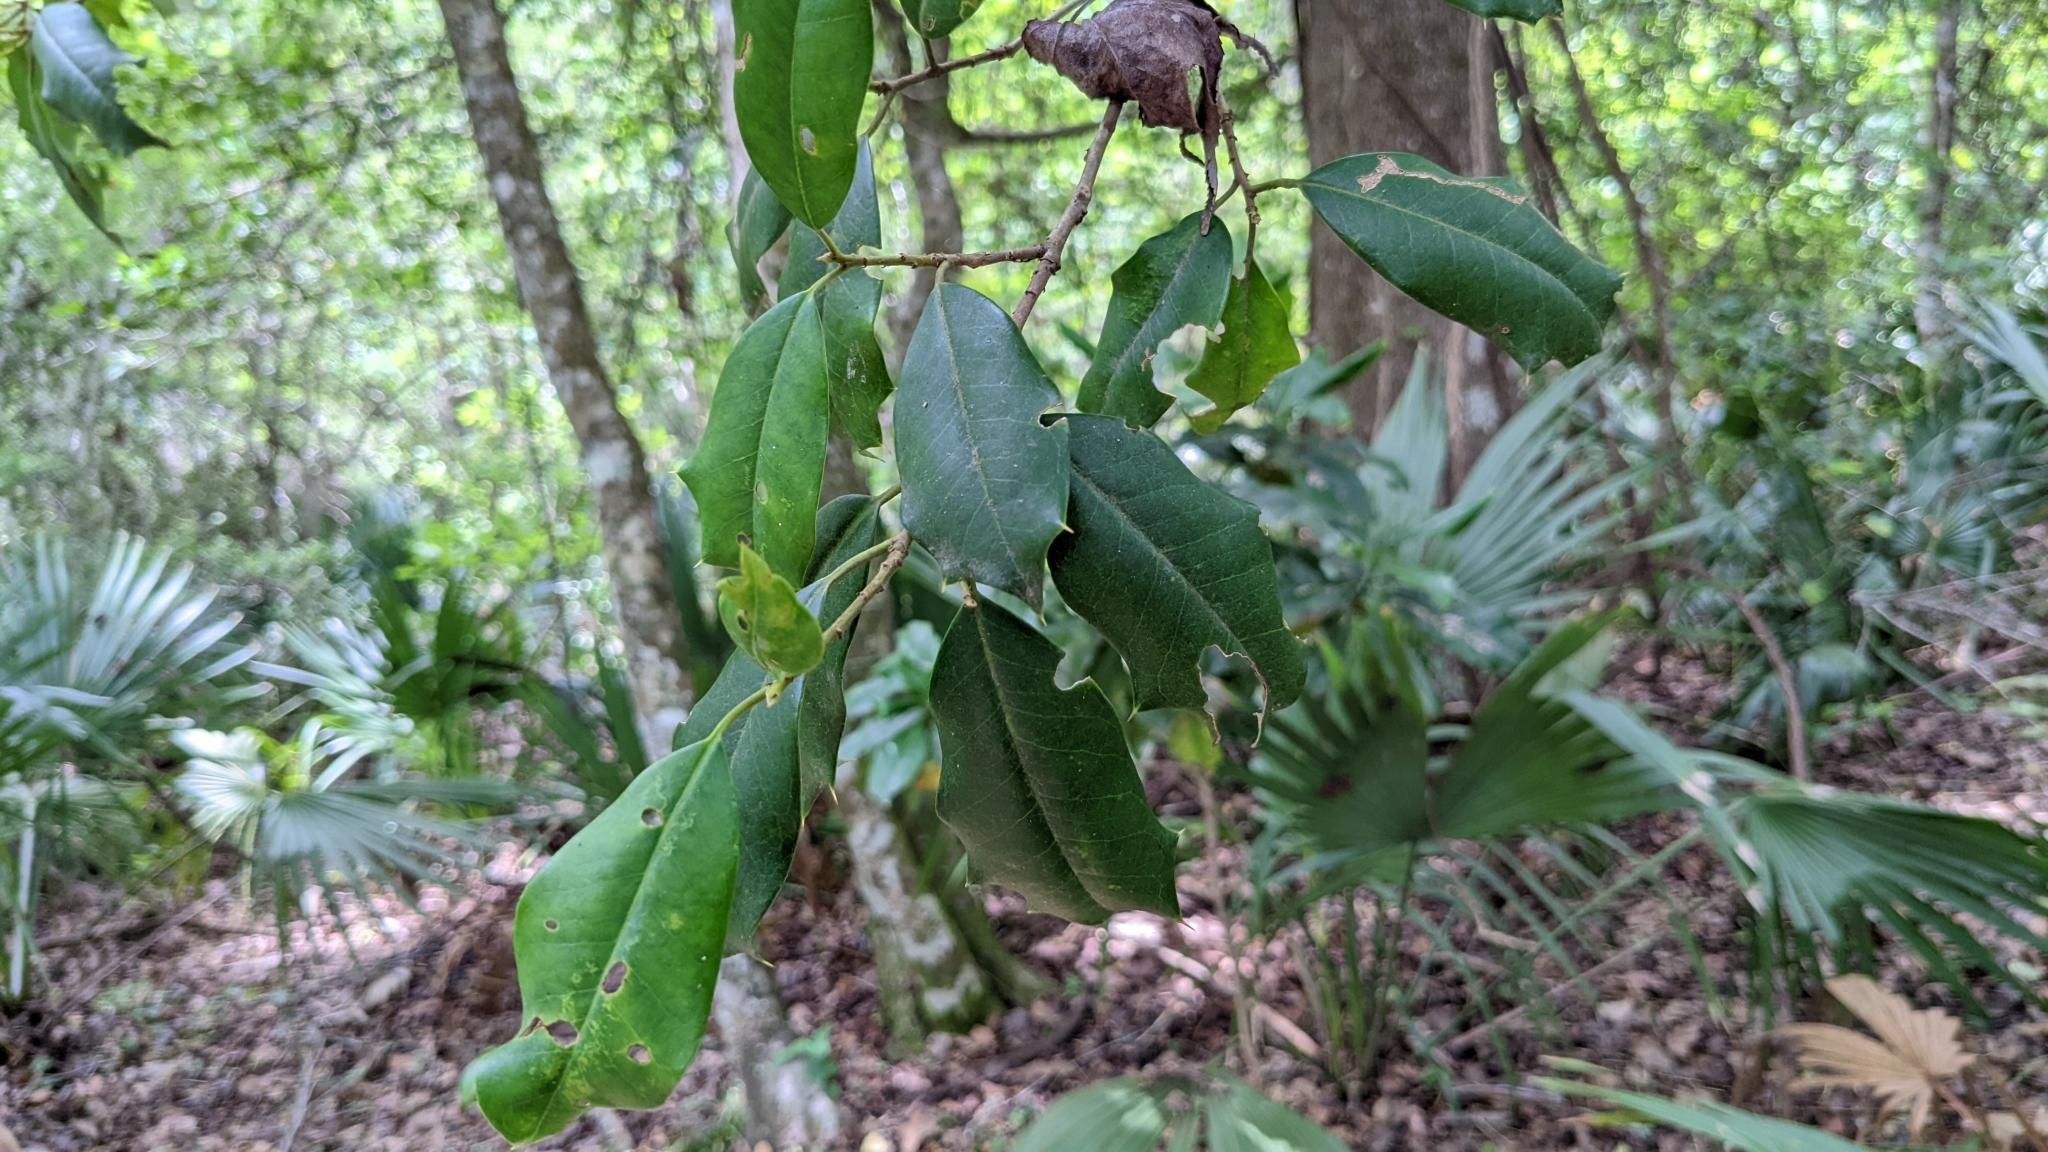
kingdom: Plantae
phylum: Tracheophyta
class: Magnoliopsida
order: Aquifoliales
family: Aquifoliaceae
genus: Ilex
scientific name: Ilex opaca
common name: American holly
